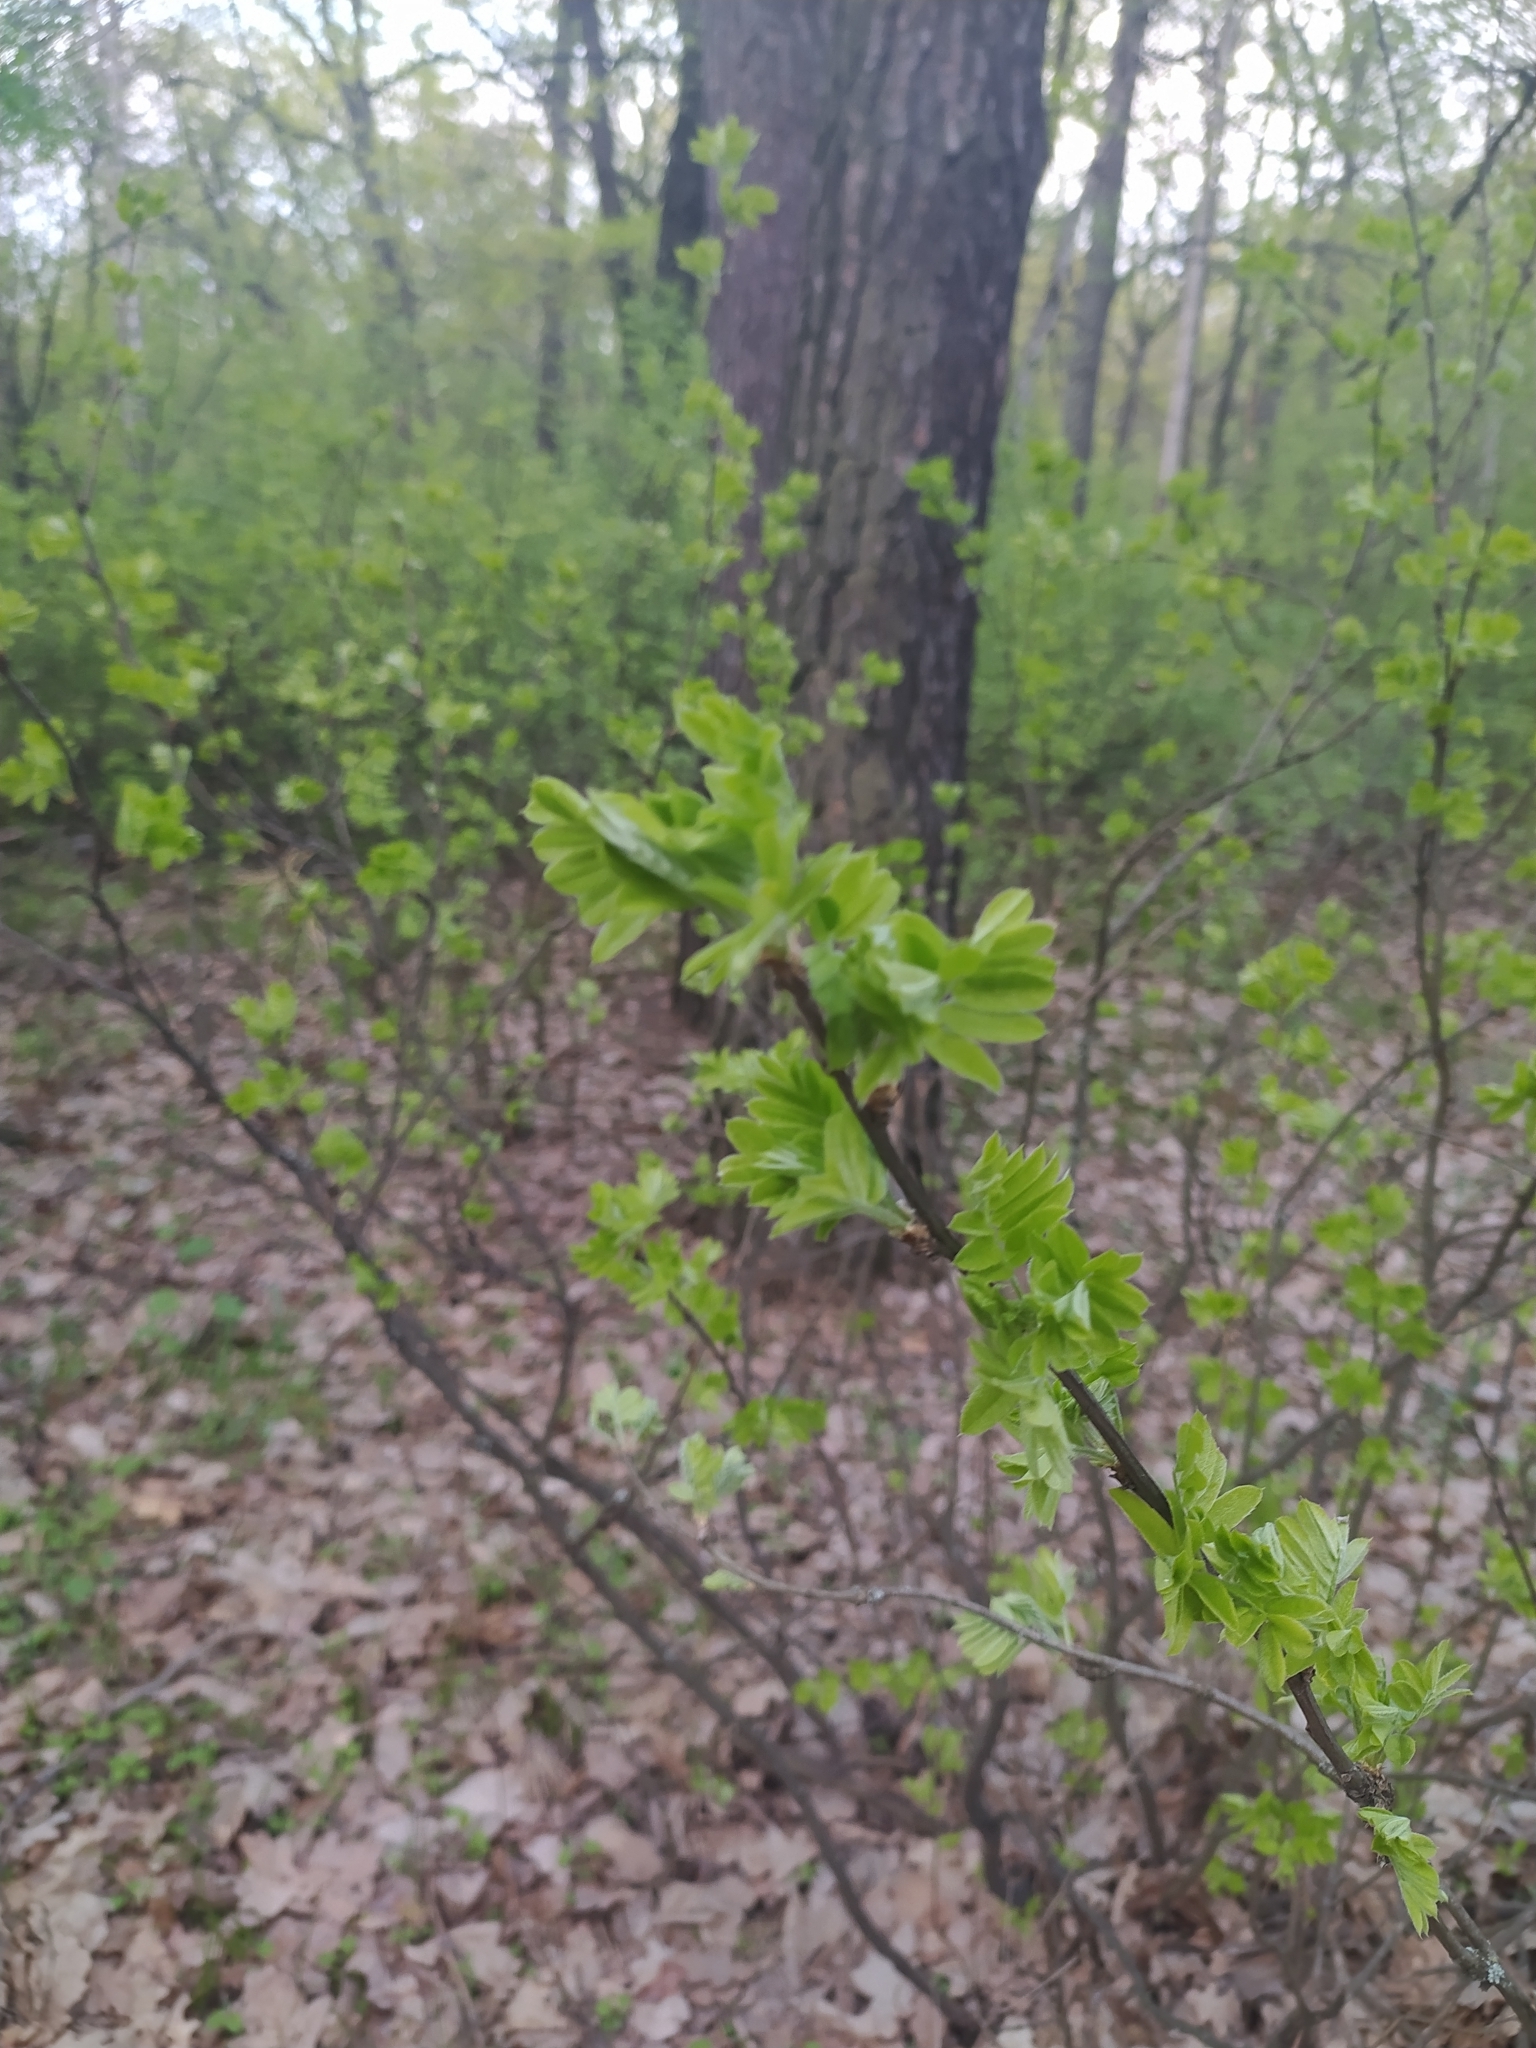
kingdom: Plantae
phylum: Tracheophyta
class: Magnoliopsida
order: Fabales
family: Fabaceae
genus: Caragana
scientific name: Caragana arborescens
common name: Siberian peashrub
